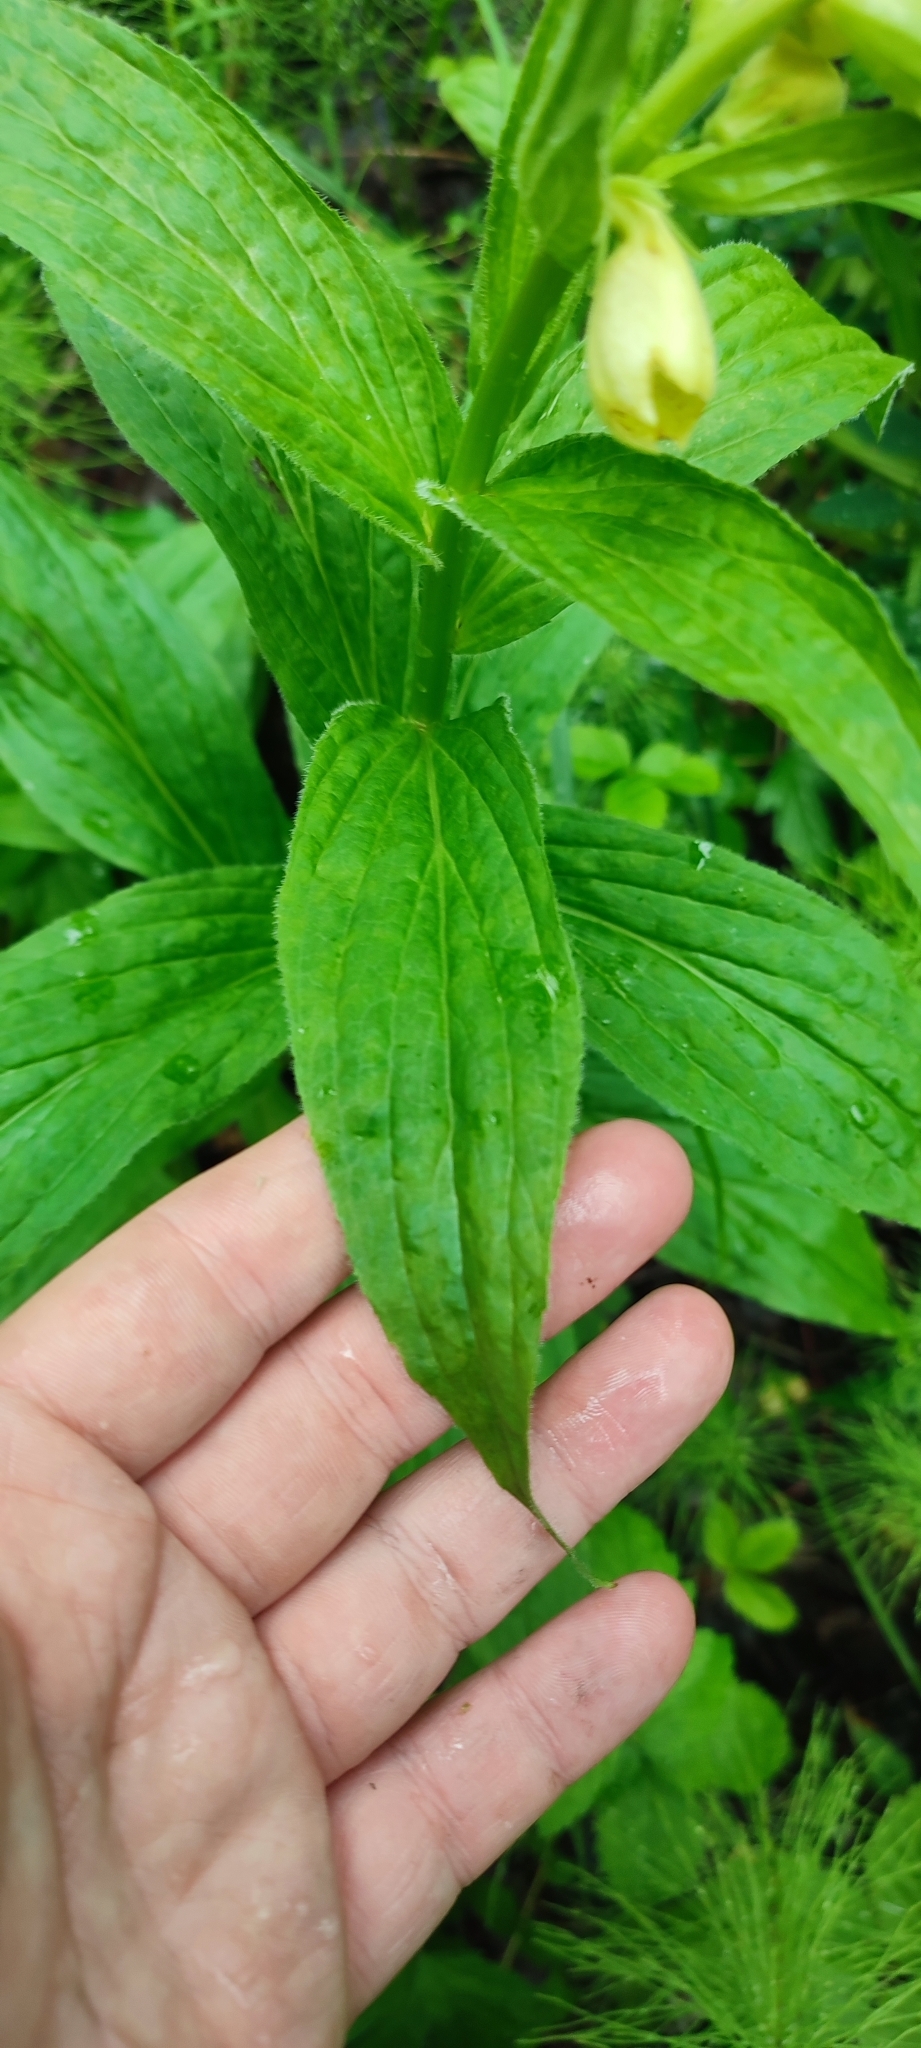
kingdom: Plantae
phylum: Tracheophyta
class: Magnoliopsida
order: Lamiales
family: Plantaginaceae
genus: Digitalis
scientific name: Digitalis grandiflora
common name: Yellow foxglove
